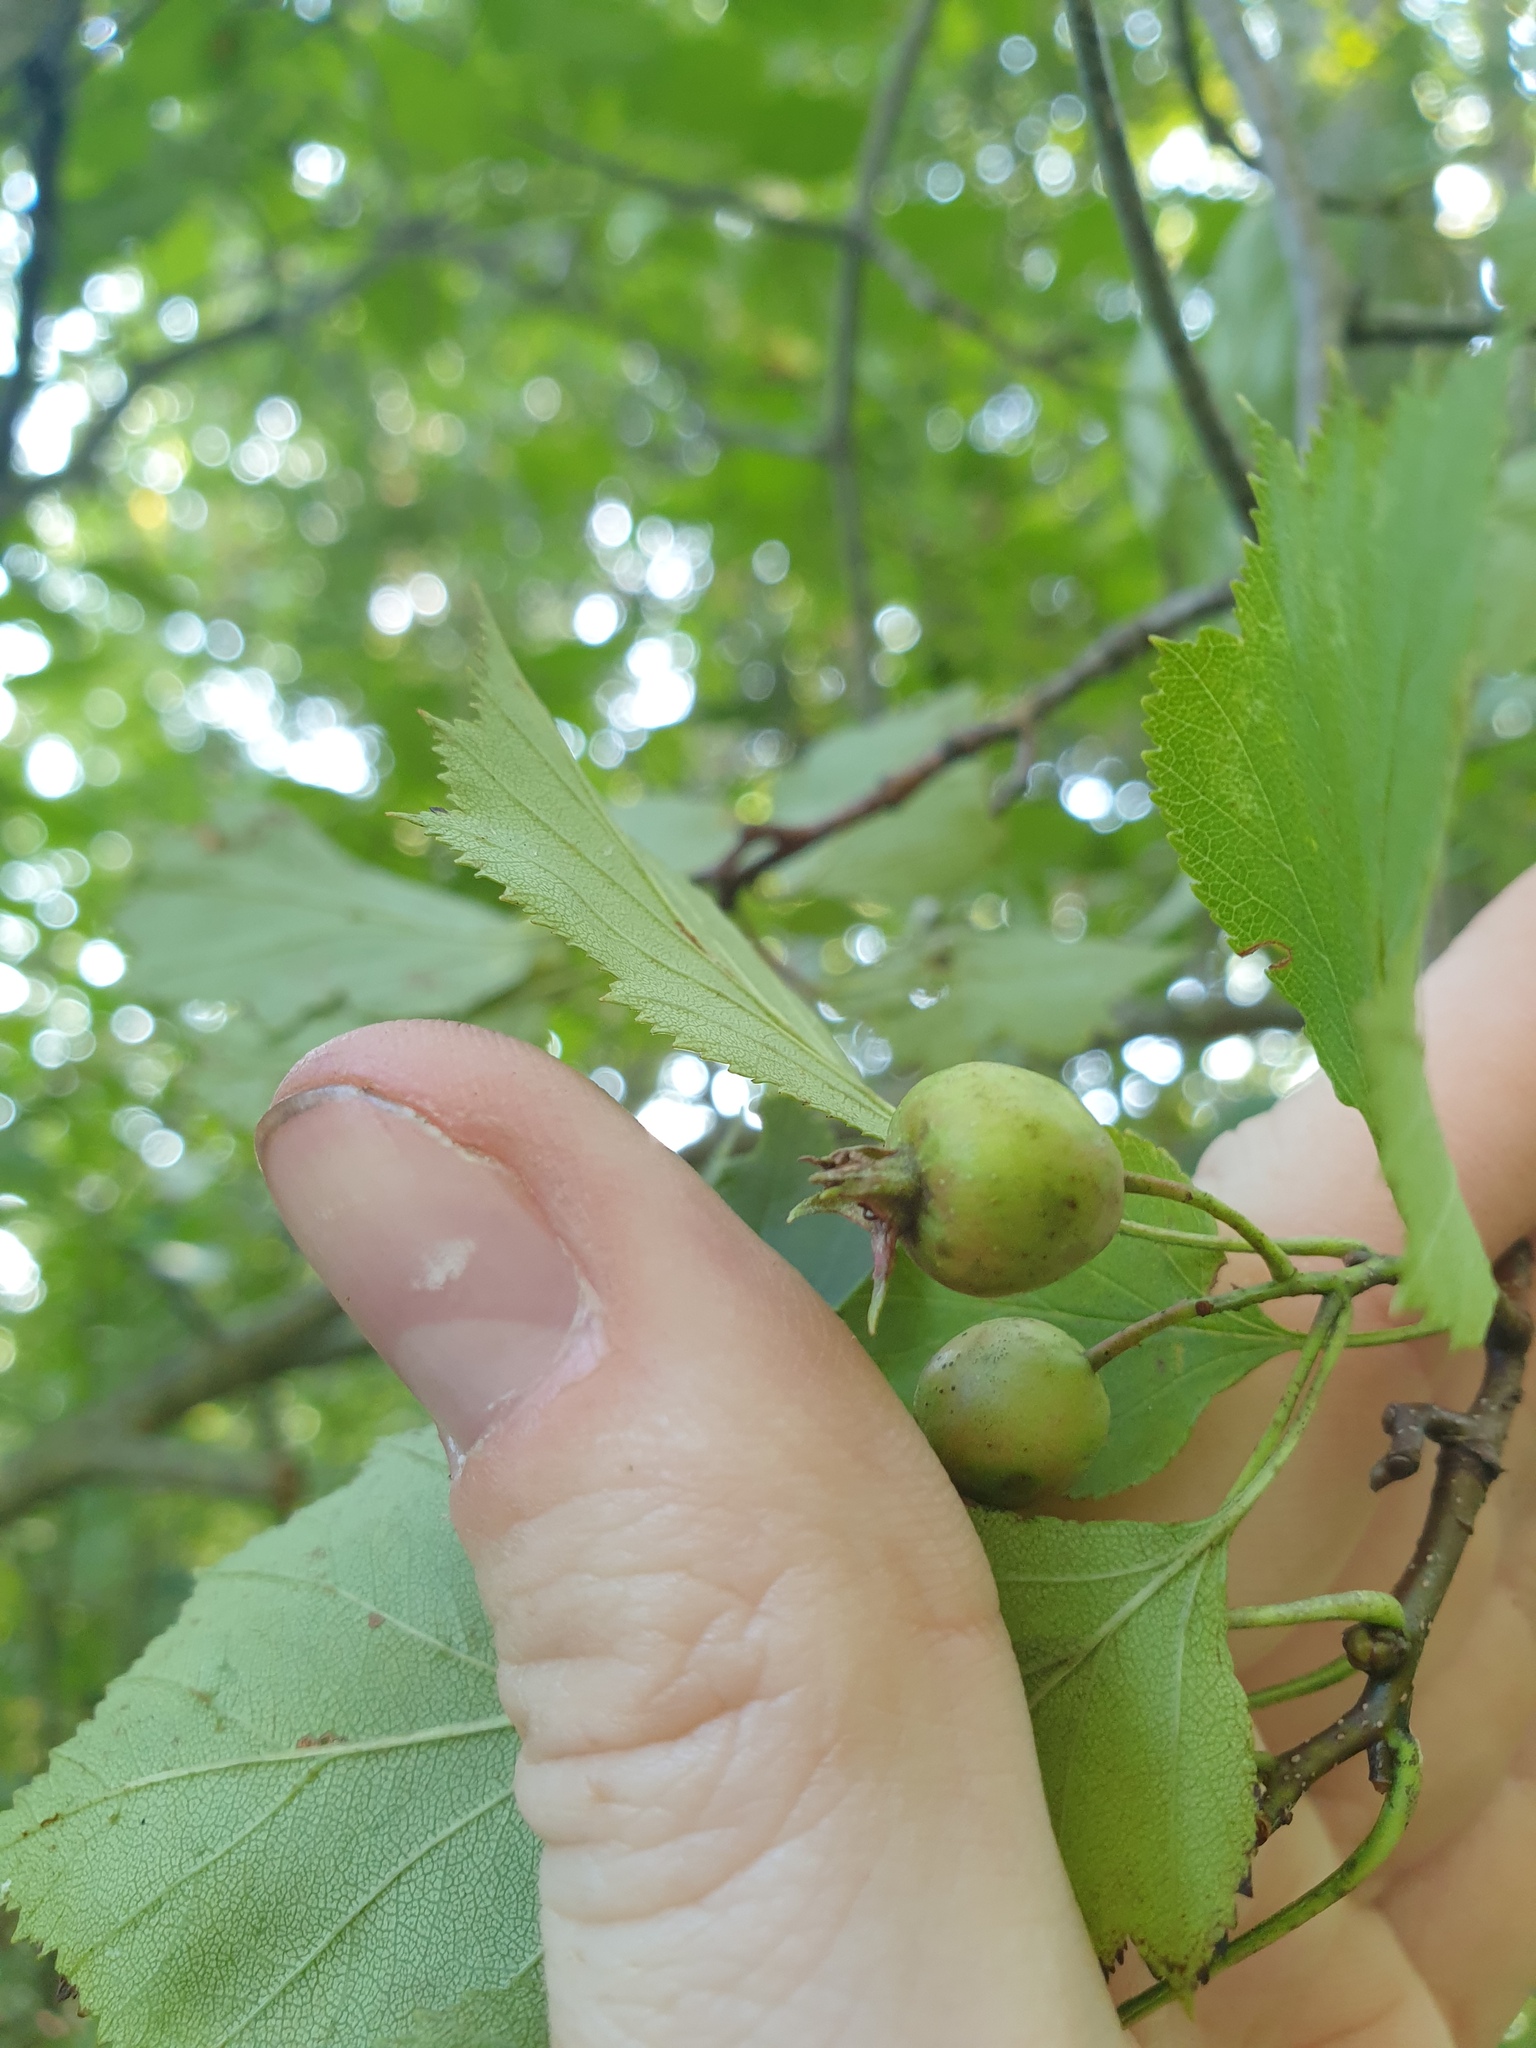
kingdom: Plantae
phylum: Tracheophyta
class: Magnoliopsida
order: Rosales
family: Rosaceae
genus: Crataegus
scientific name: Crataegus pruinosa
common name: Waxy-fruit hawthorn
